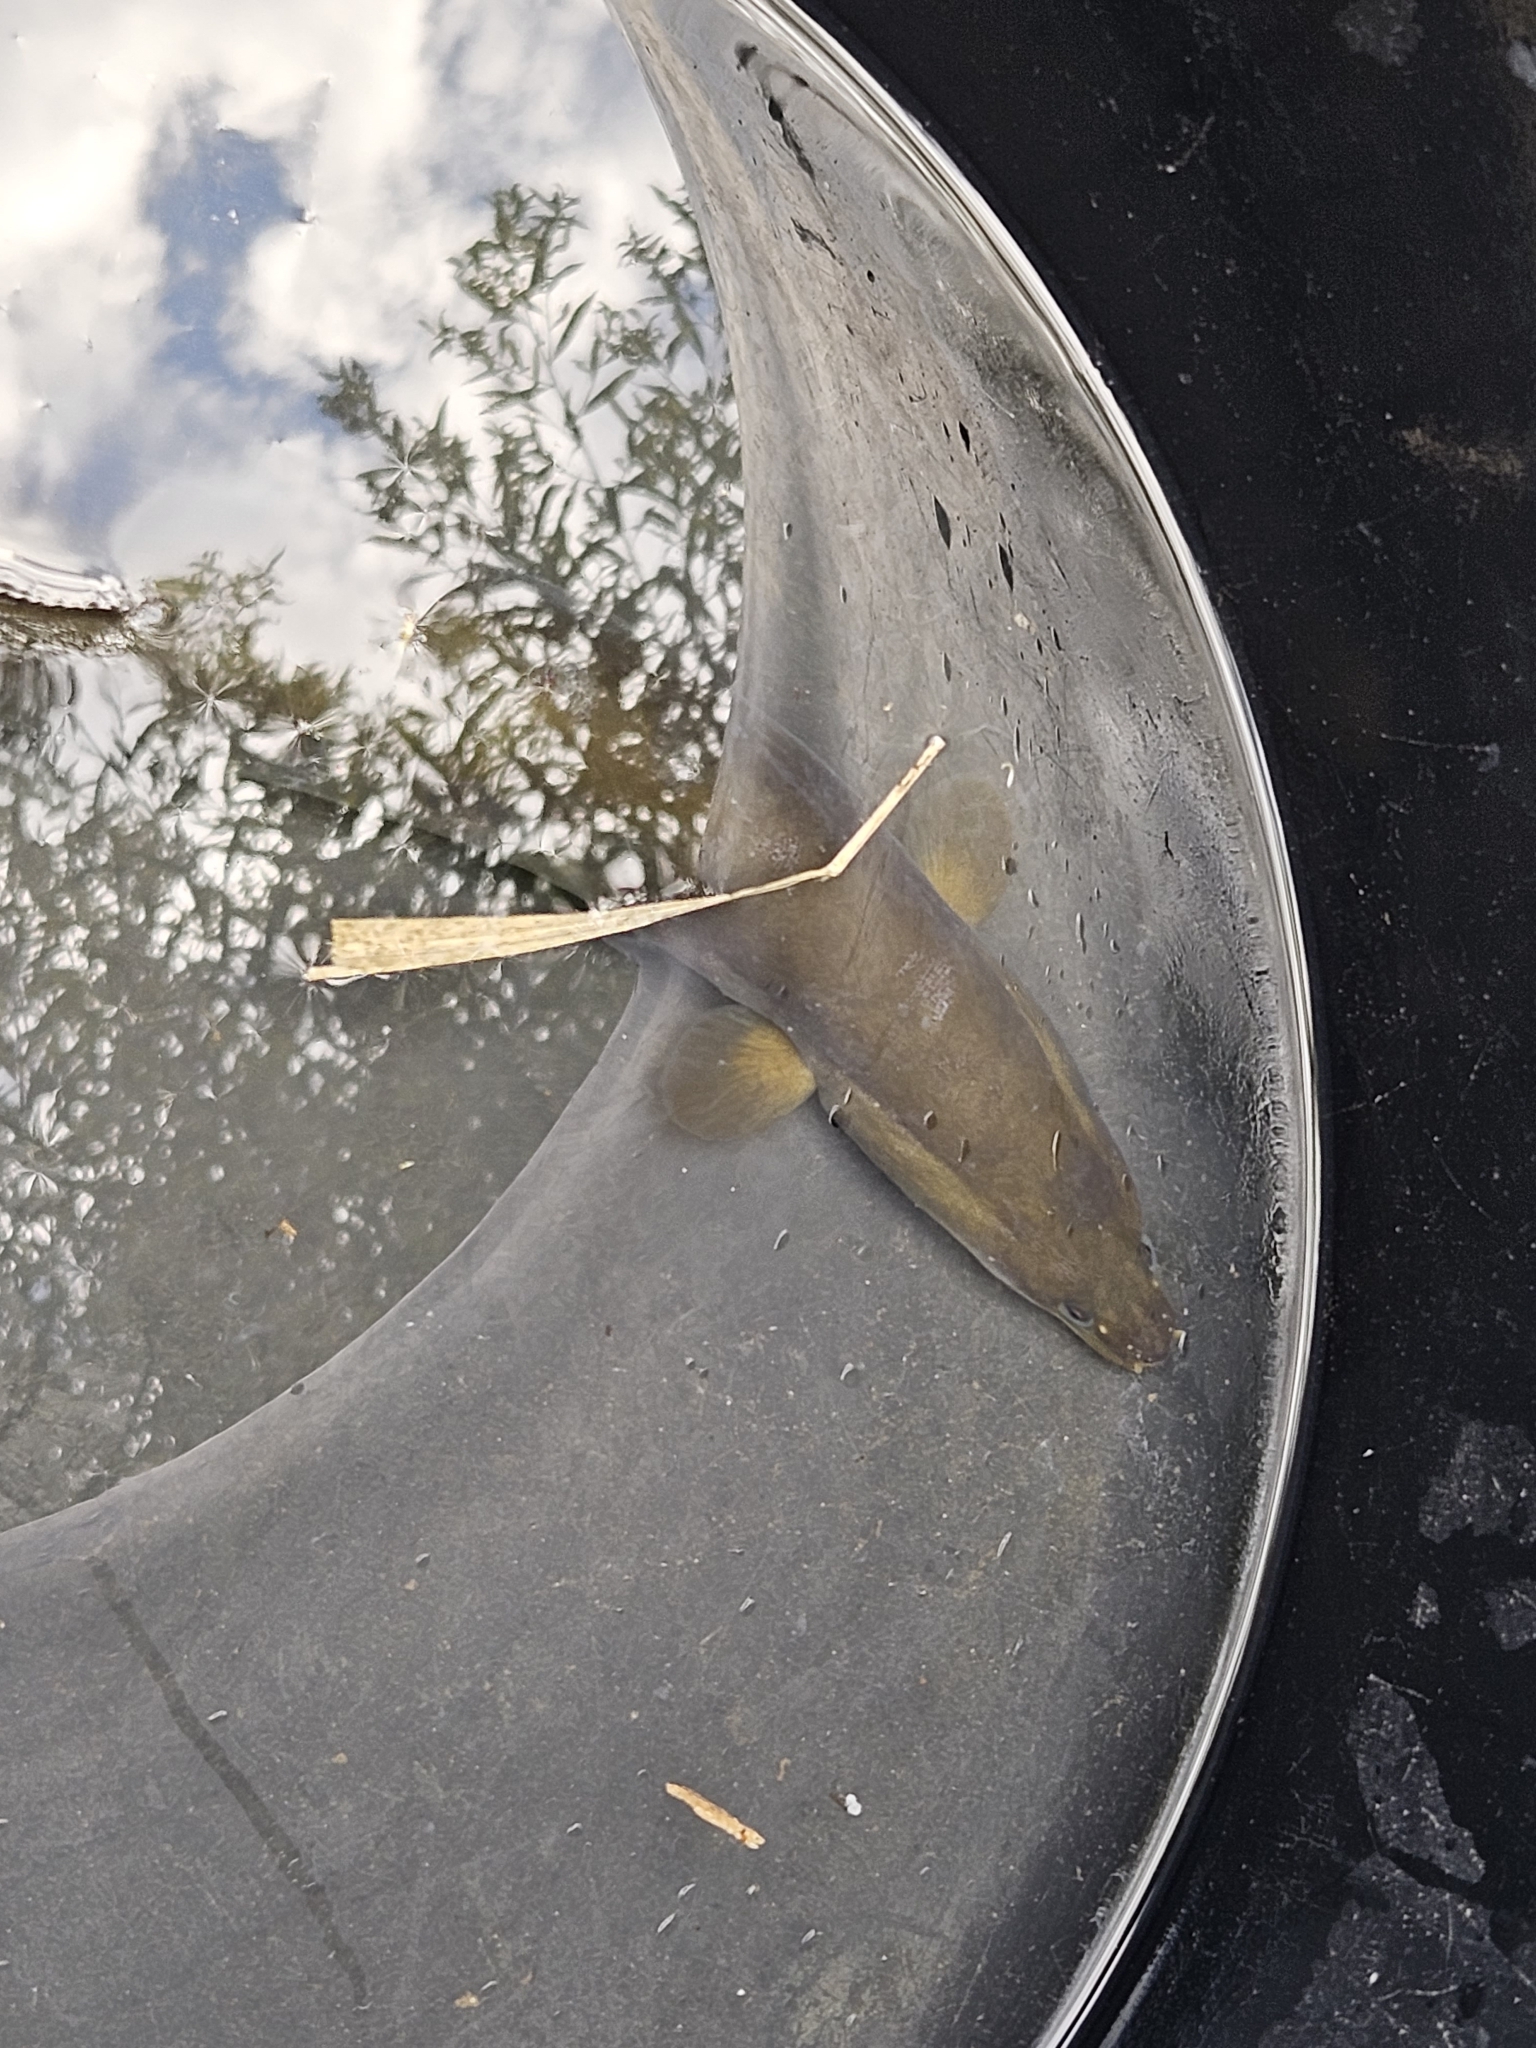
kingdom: Animalia
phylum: Chordata
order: Anguilliformes
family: Anguillidae
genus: Anguilla
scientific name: Anguilla anguilla
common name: European eel
